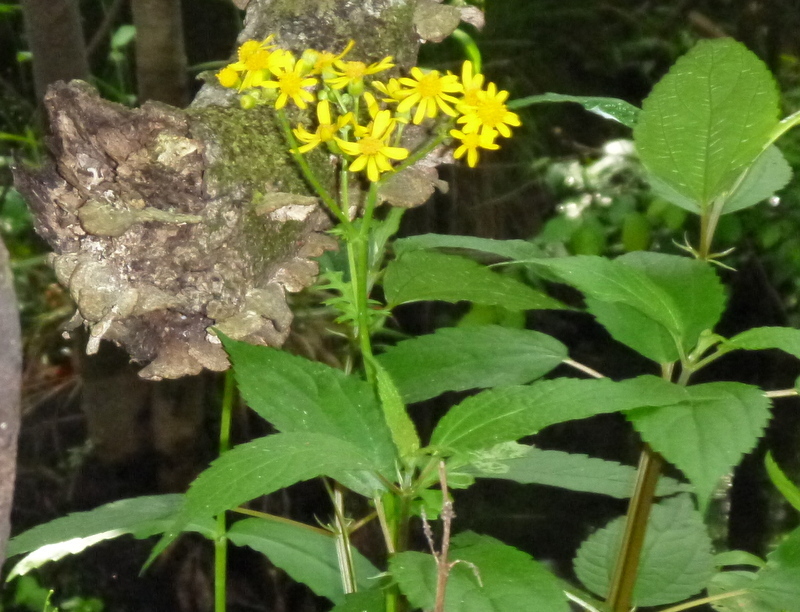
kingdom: Plantae
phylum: Tracheophyta
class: Magnoliopsida
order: Asterales
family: Asteraceae
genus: Packera
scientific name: Packera glabella
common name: Butterweed
